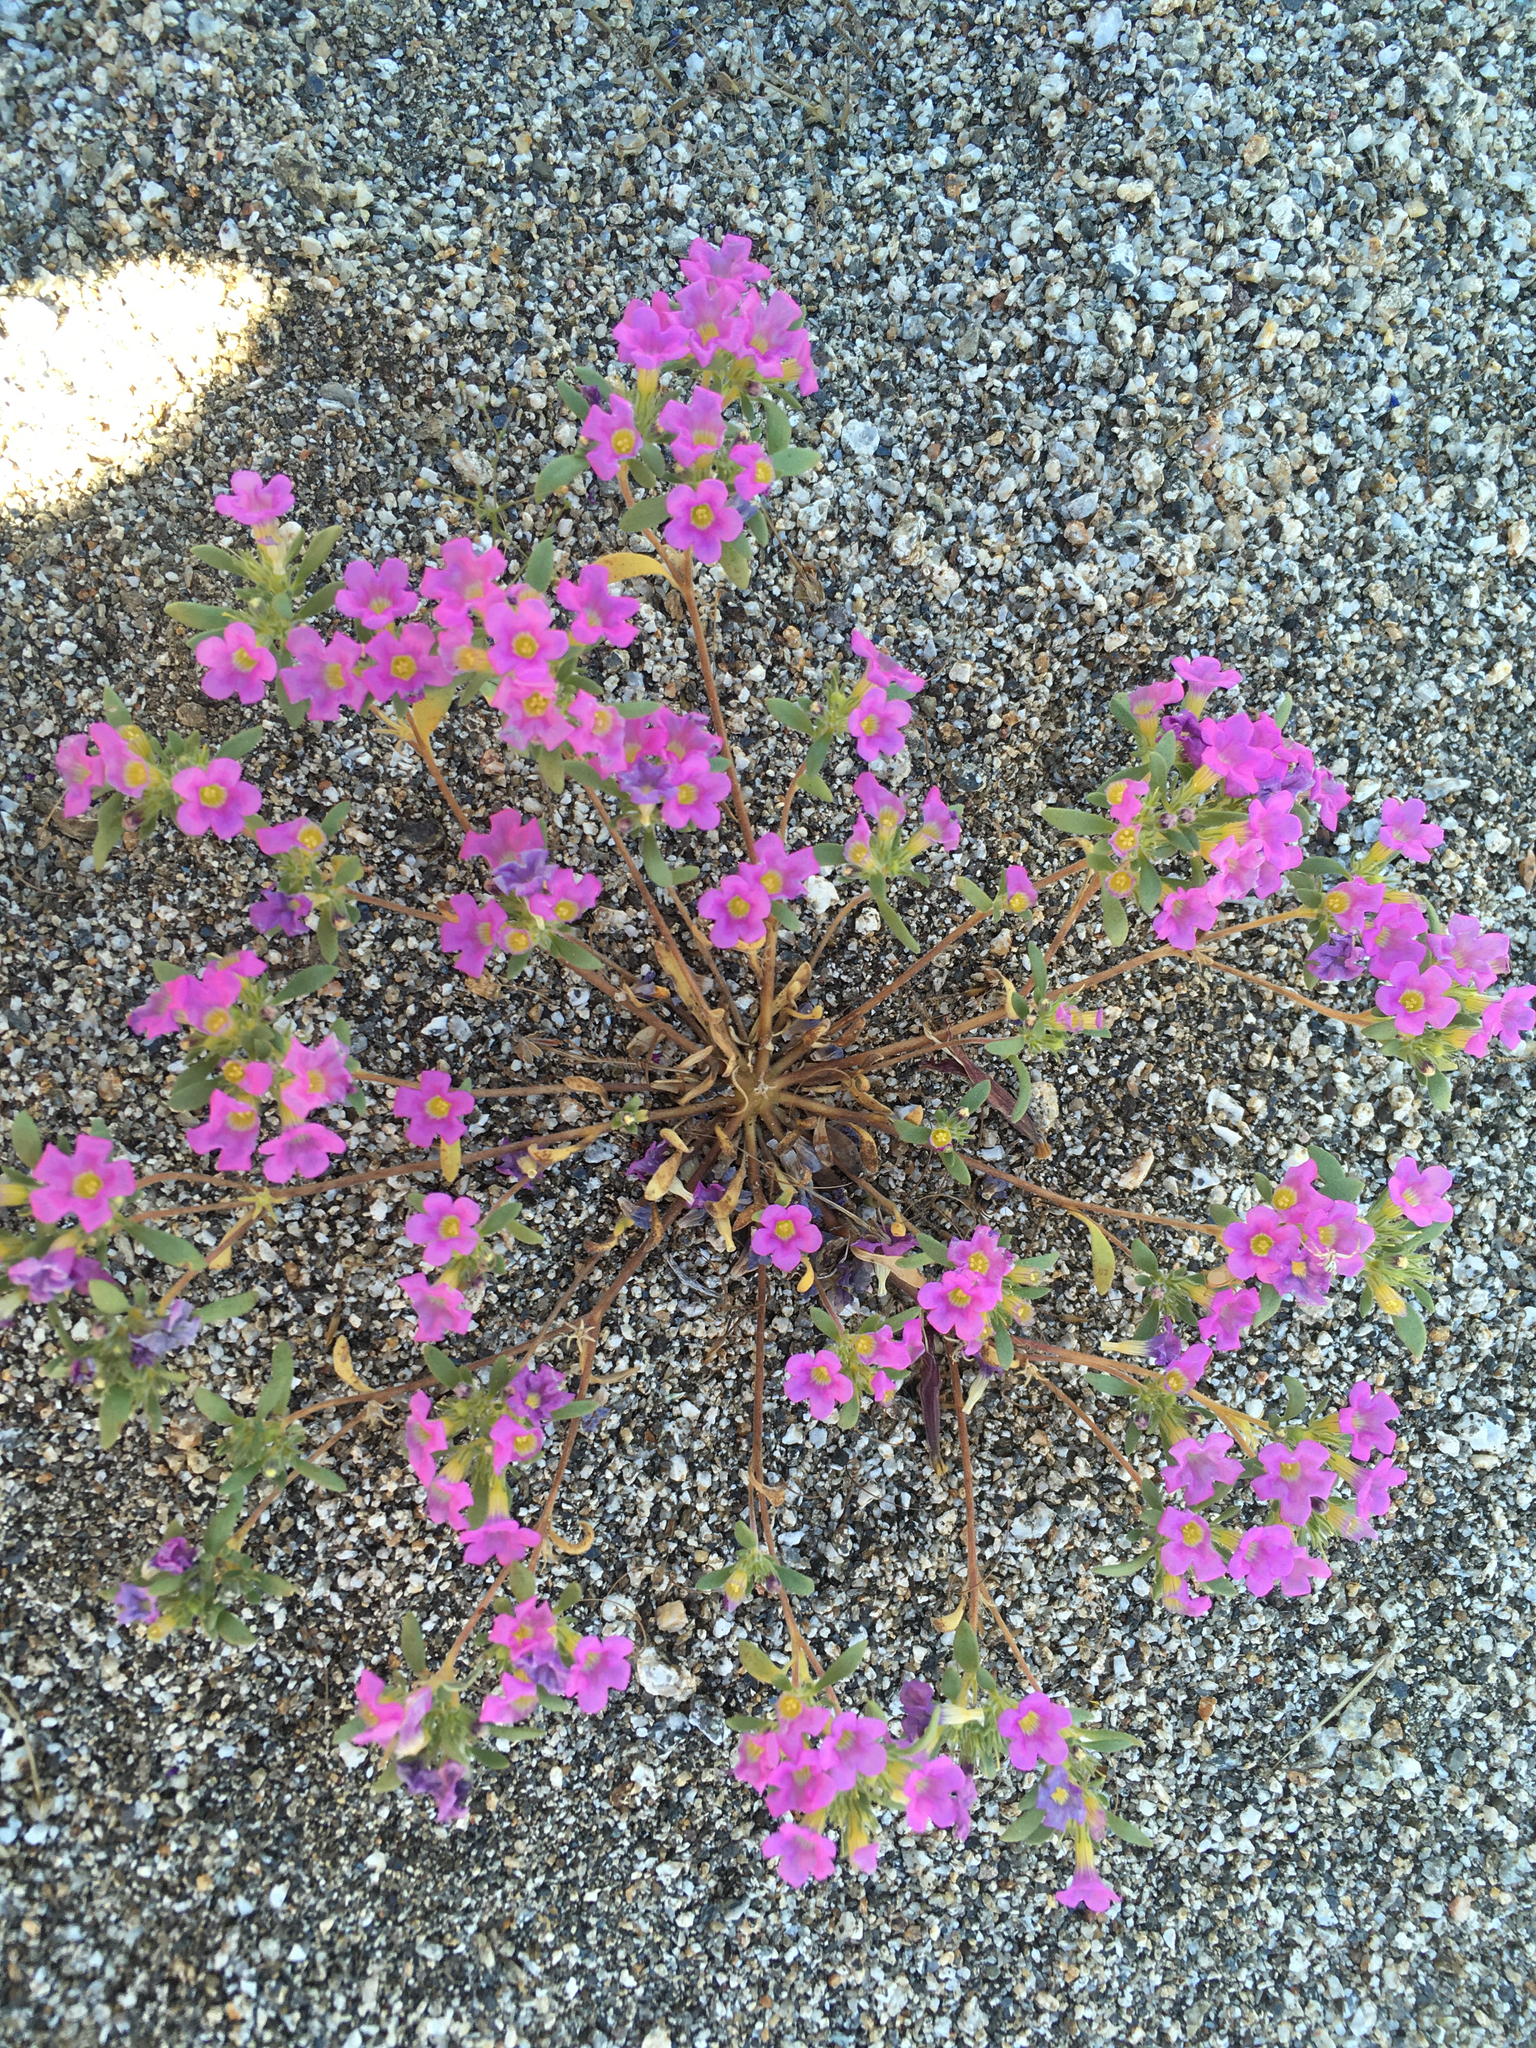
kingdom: Plantae
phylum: Tracheophyta
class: Magnoliopsida
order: Boraginales
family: Namaceae
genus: Nama
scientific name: Nama demissa
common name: Leafy nama
